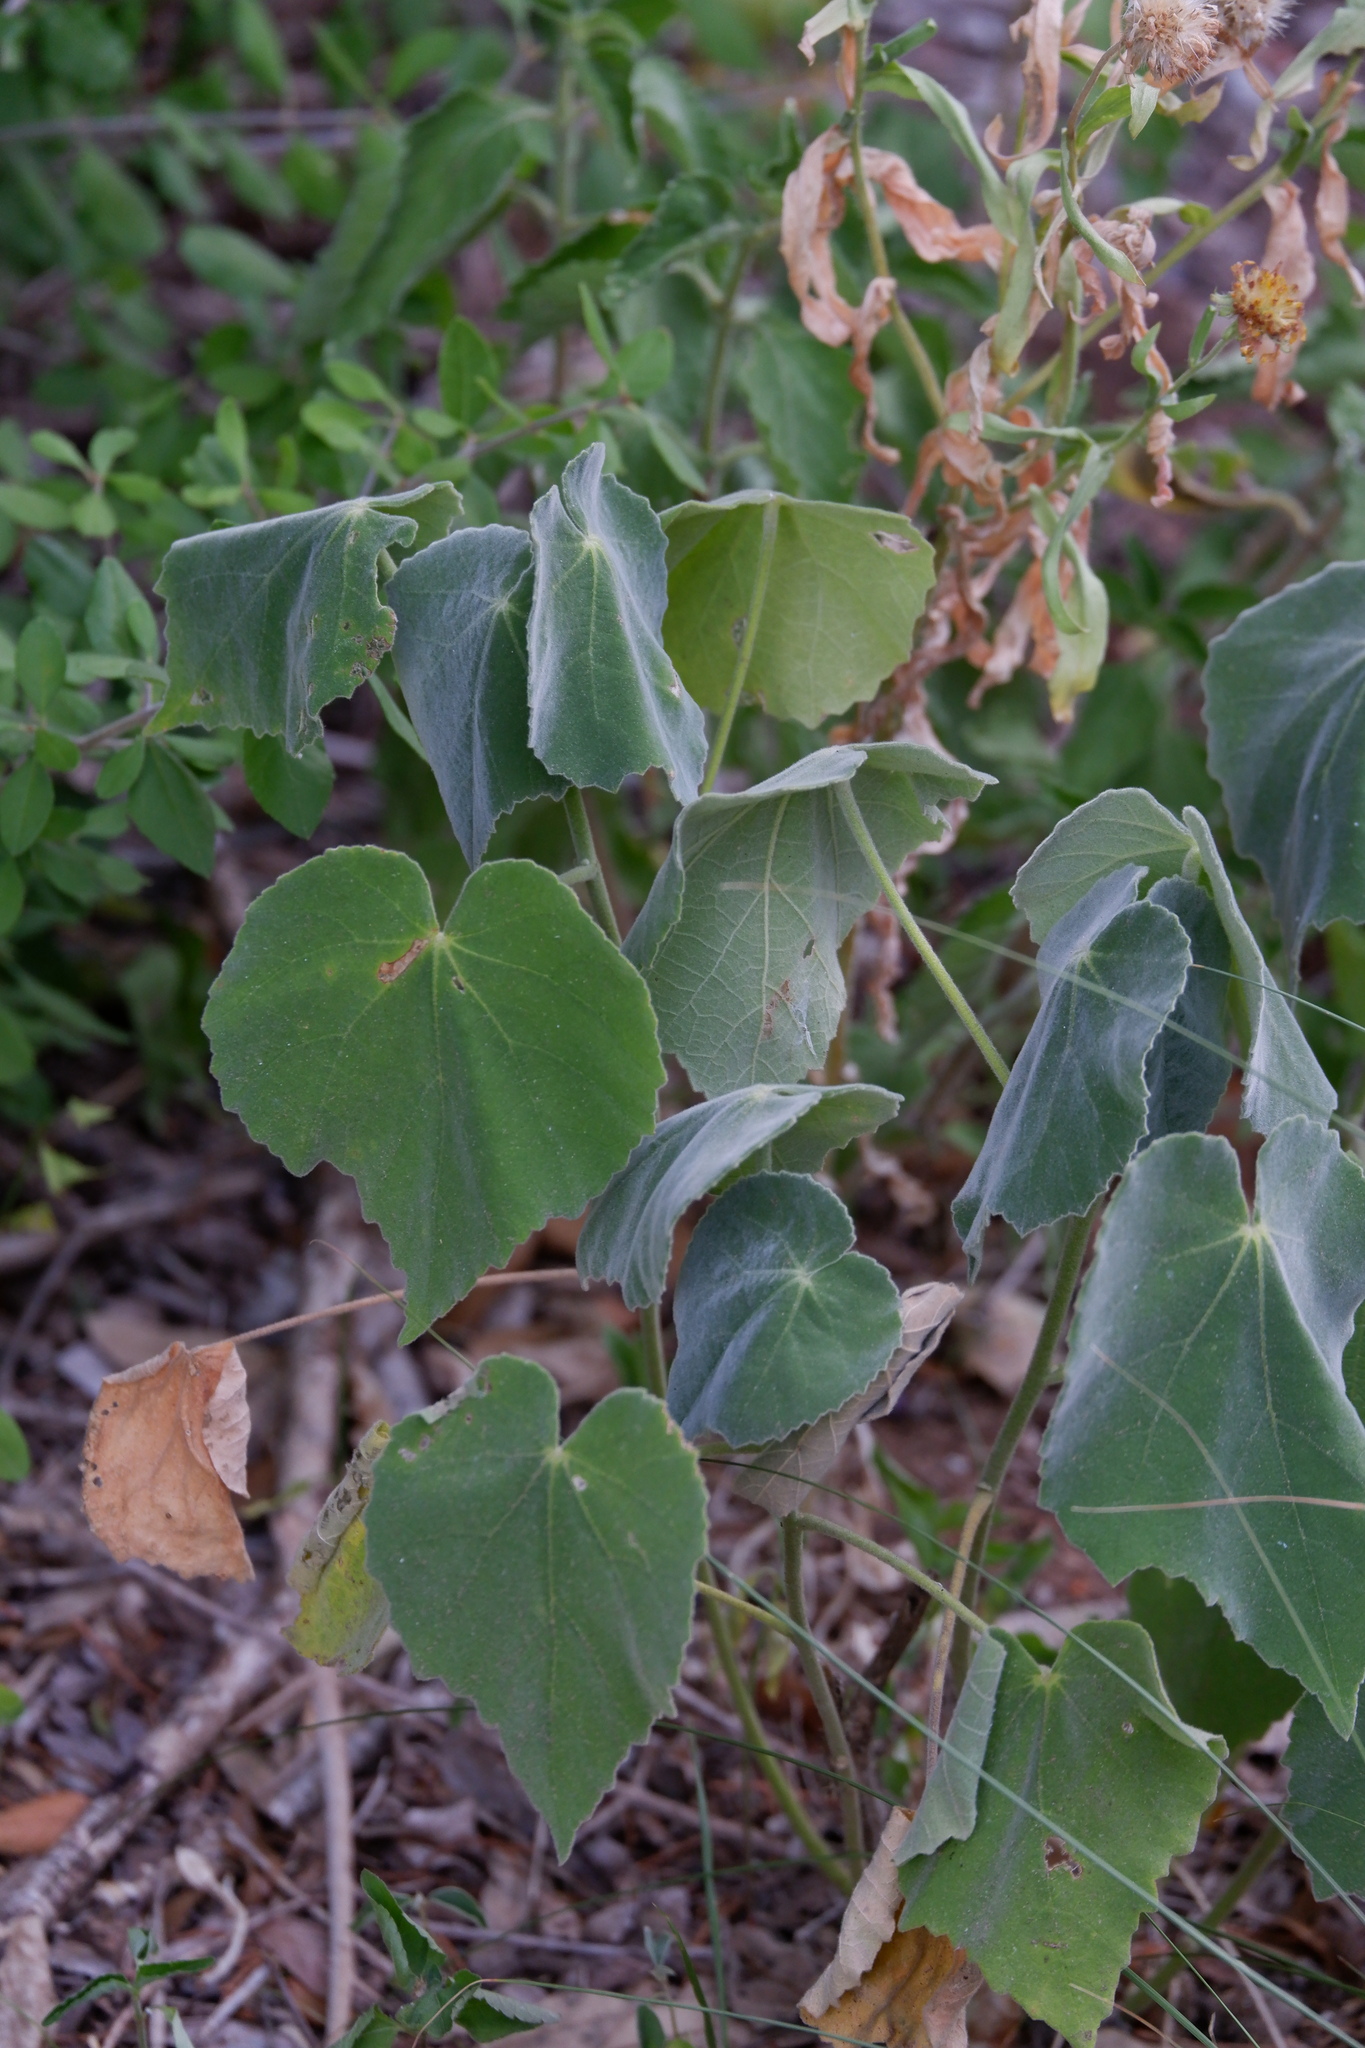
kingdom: Plantae
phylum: Tracheophyta
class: Magnoliopsida
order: Malvales
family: Malvaceae
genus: Allowissadula
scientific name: Allowissadula holosericea
